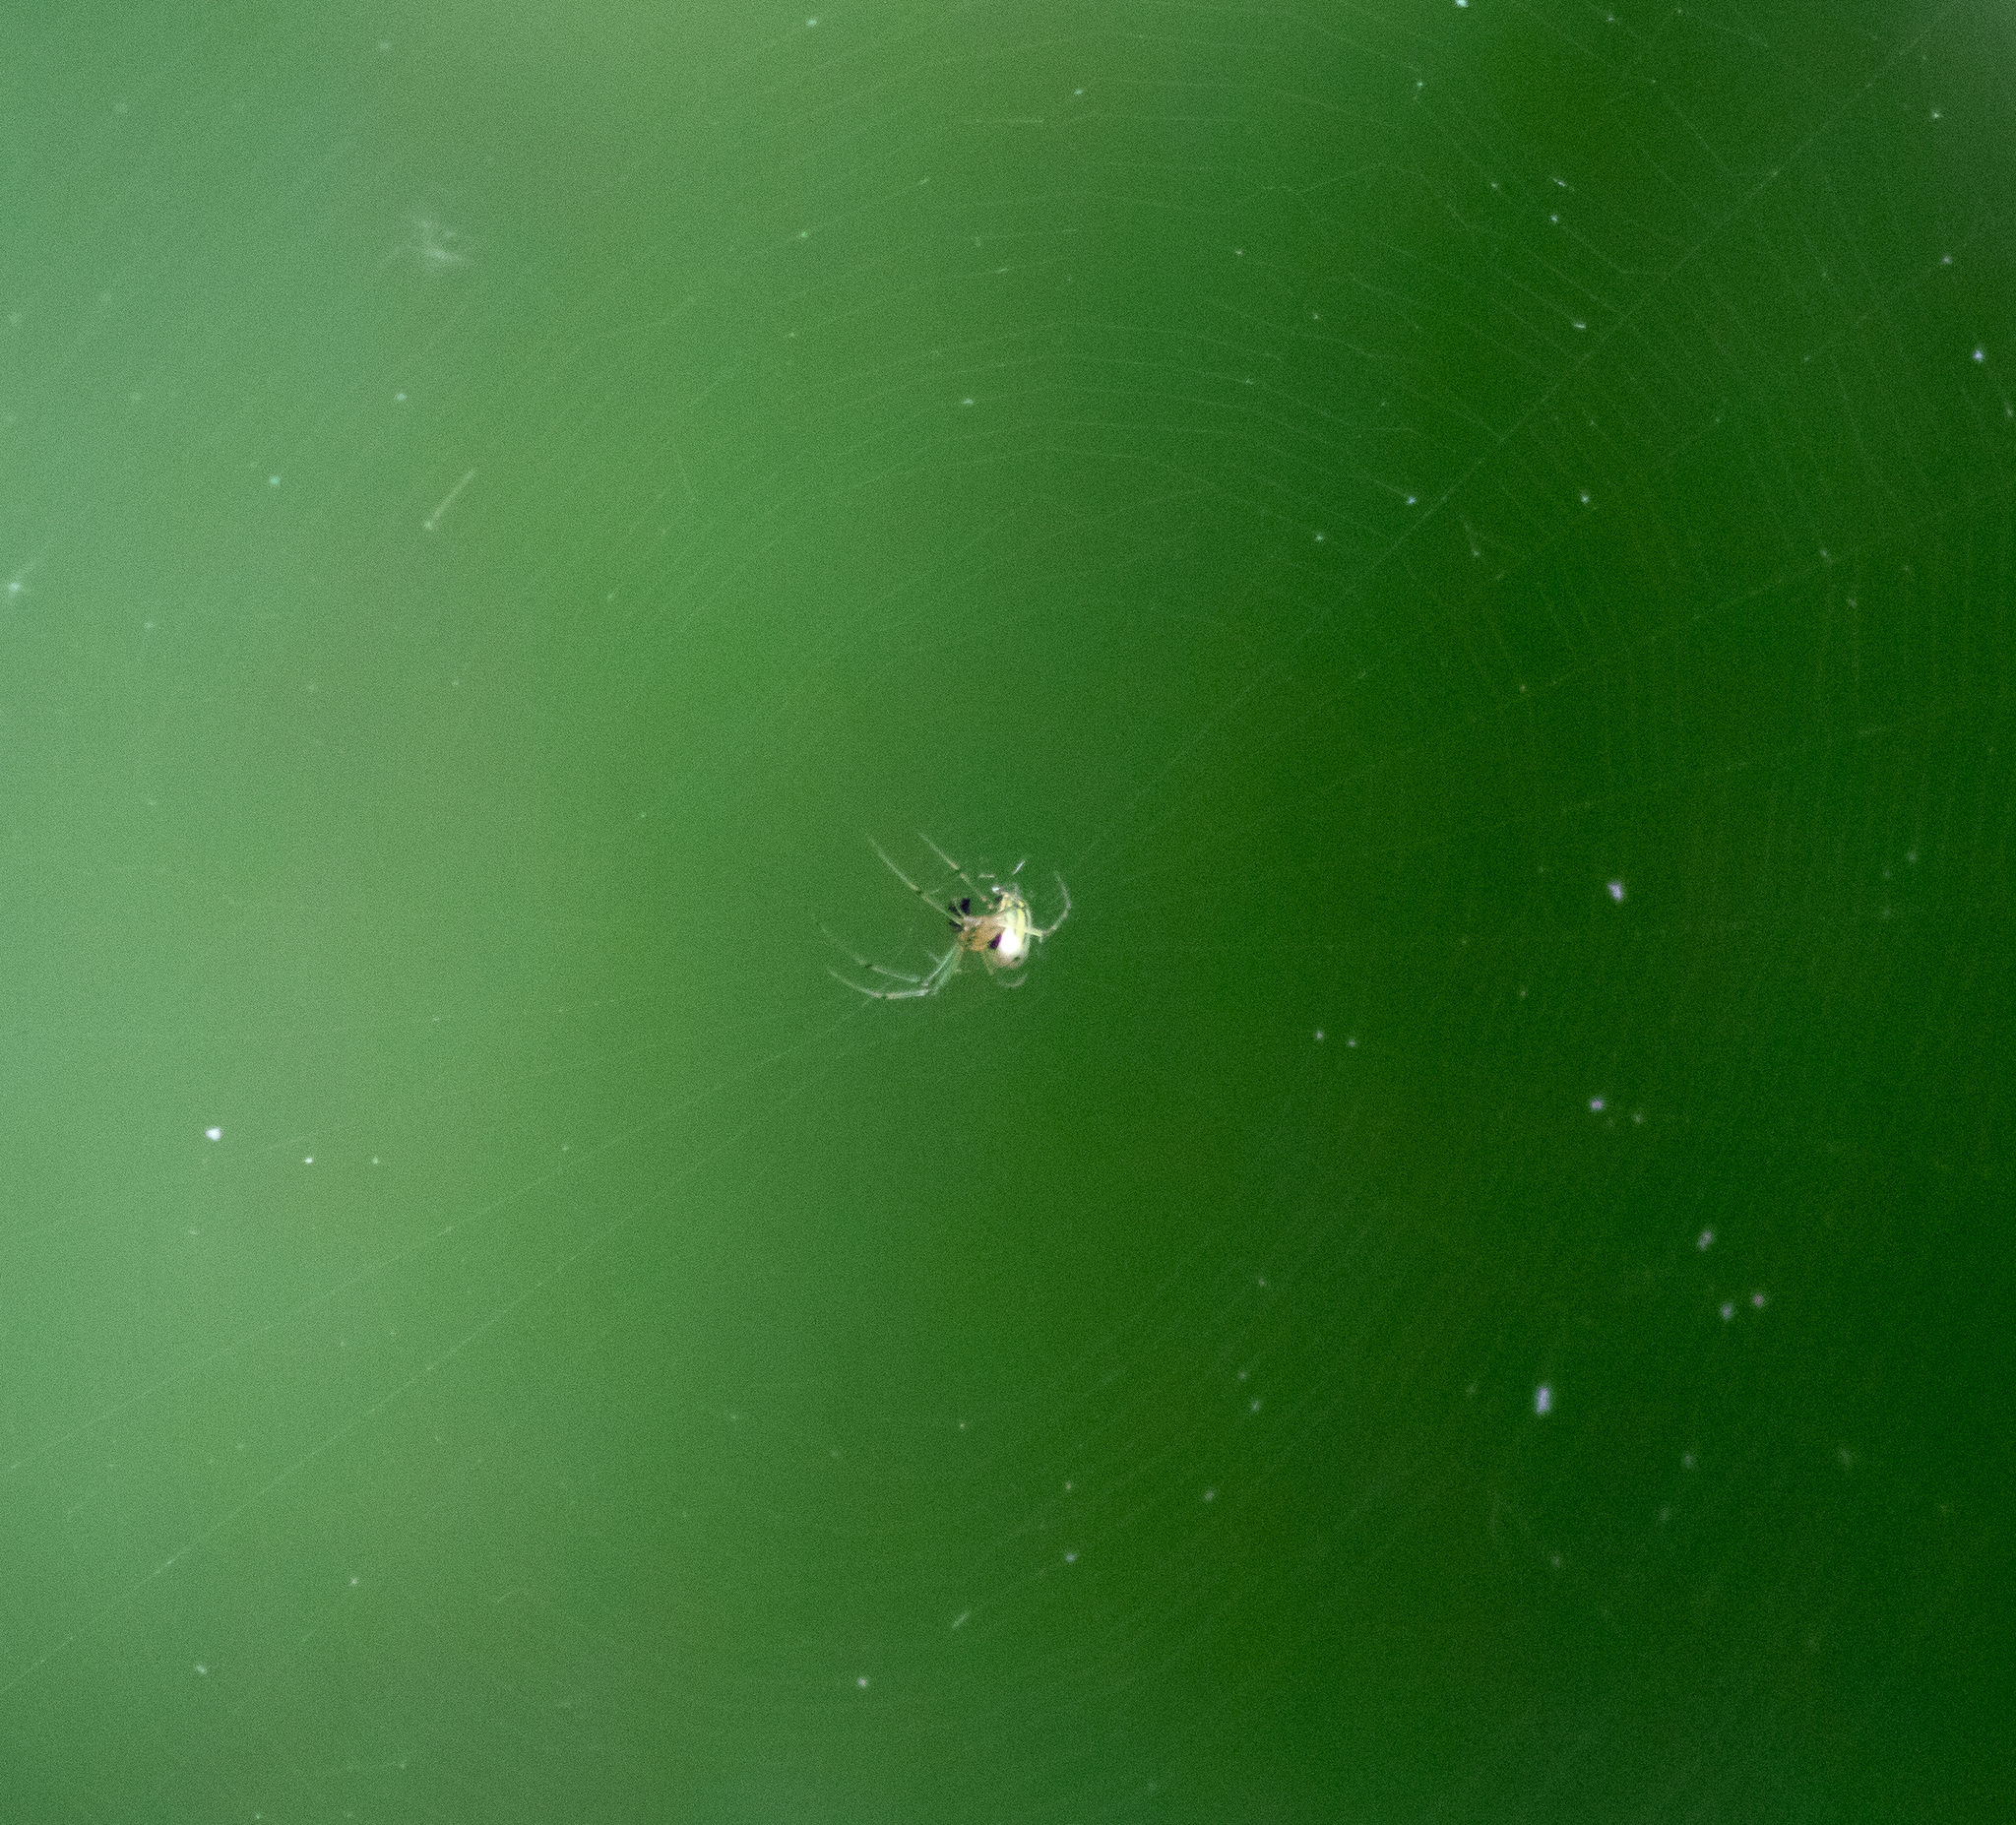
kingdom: Animalia
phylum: Arthropoda
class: Arachnida
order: Araneae
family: Tetragnathidae
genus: Leucauge
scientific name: Leucauge venusta
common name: Longjawed orb weavers
